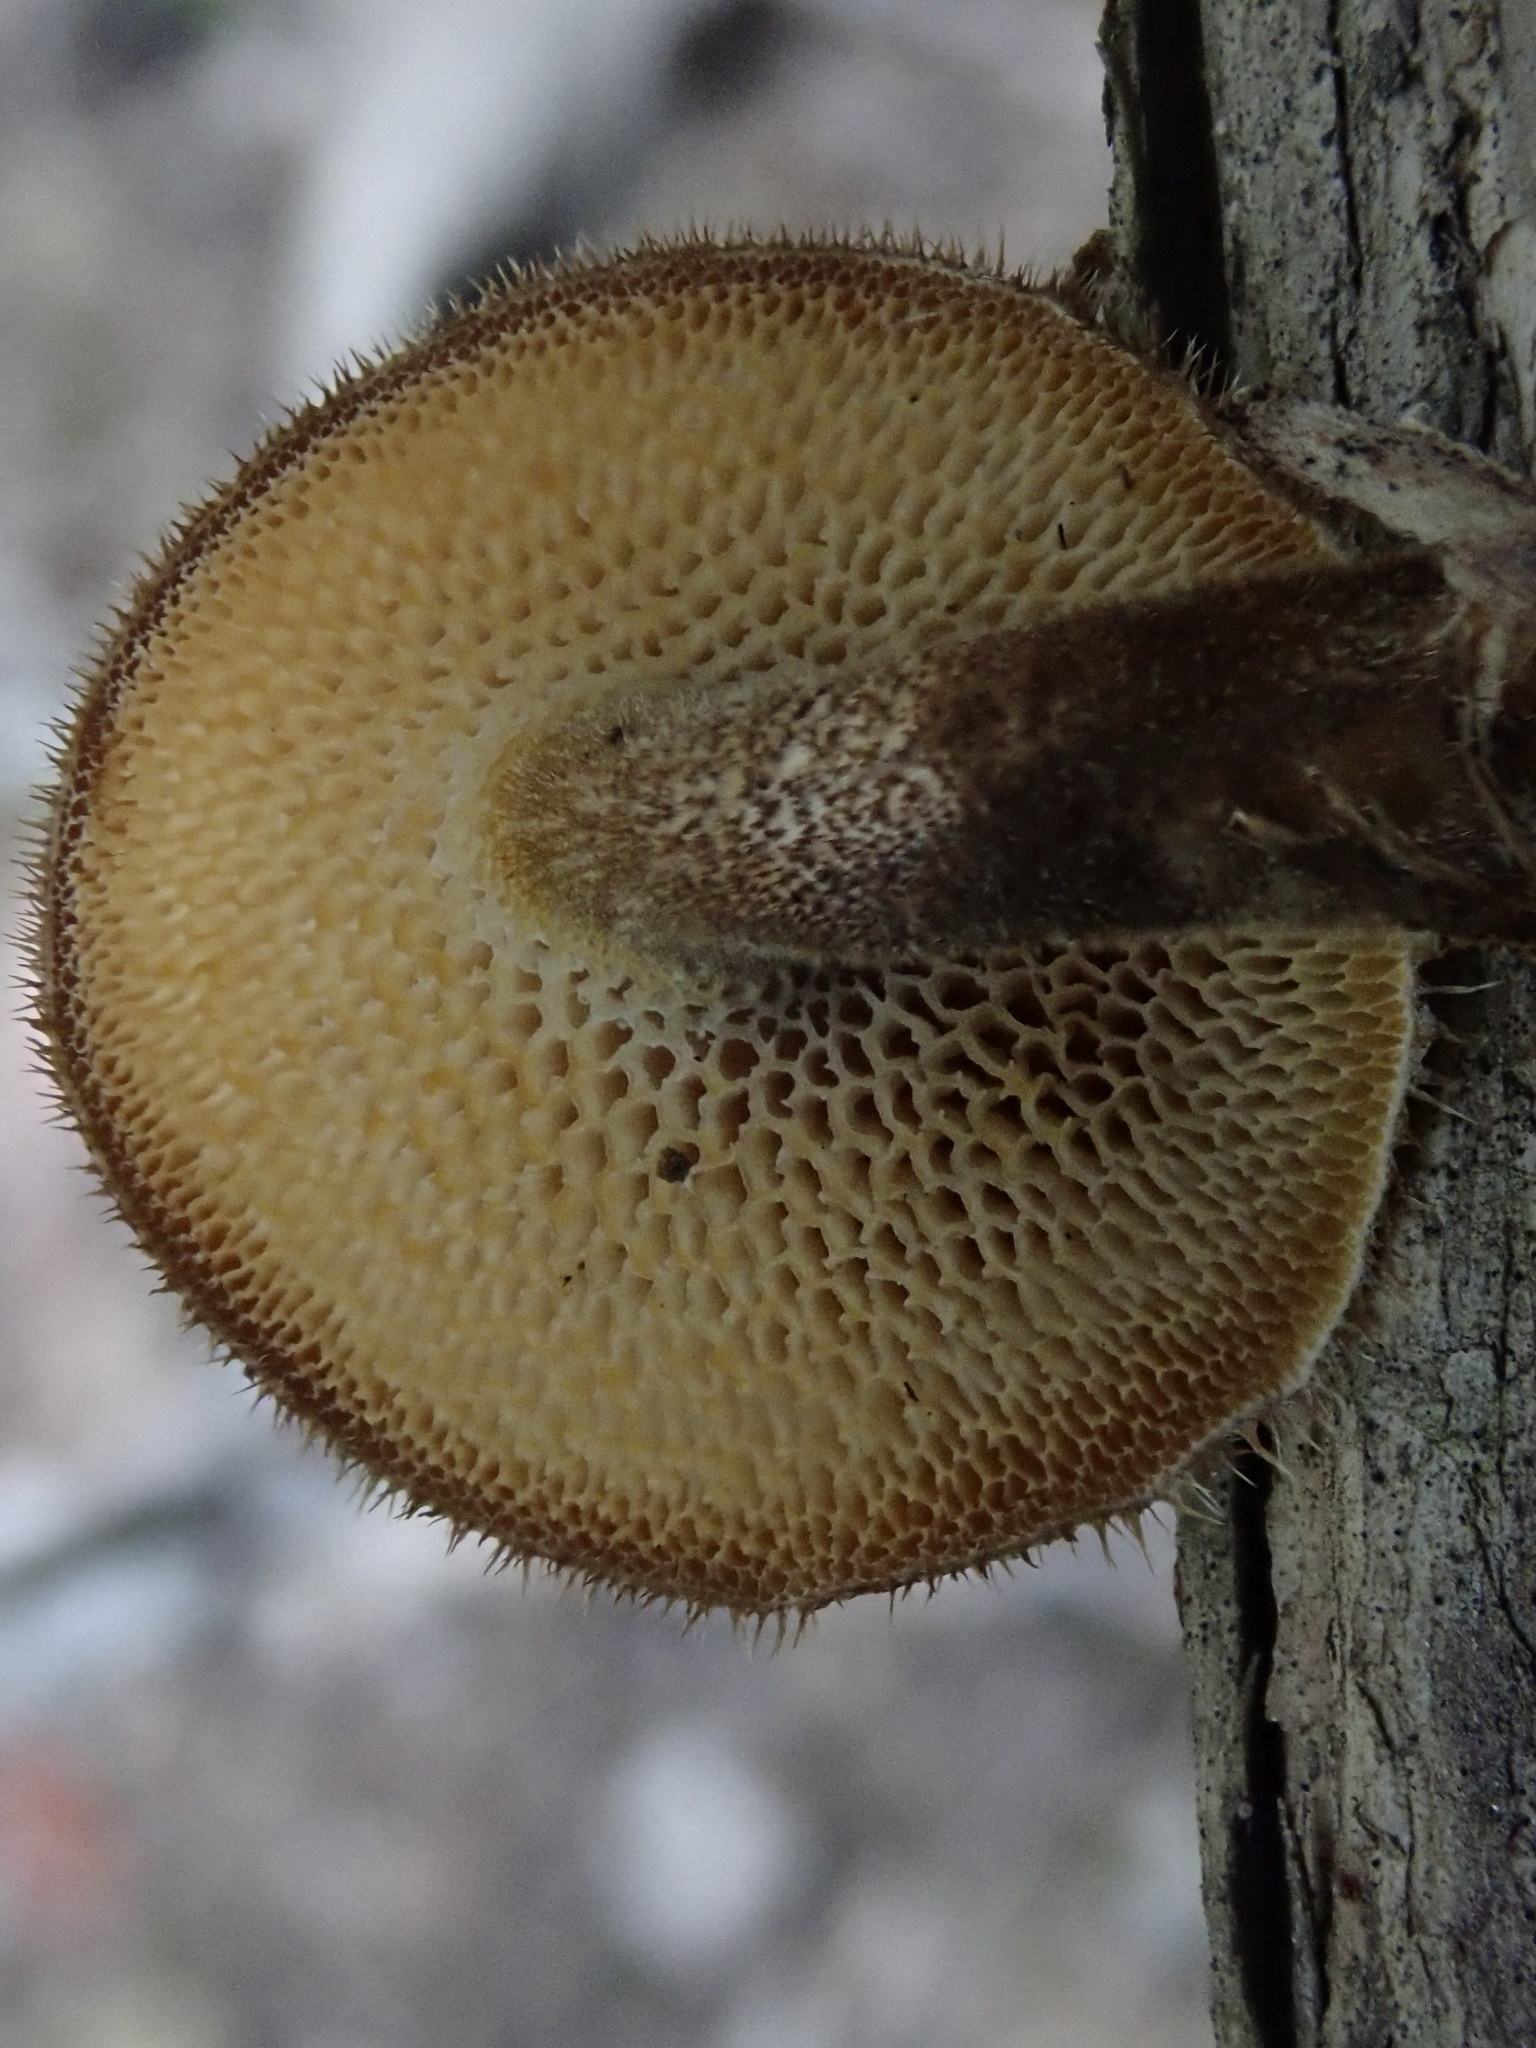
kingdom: Fungi
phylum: Basidiomycota
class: Agaricomycetes
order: Polyporales
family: Polyporaceae
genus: Lentinus
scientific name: Lentinus arcularius
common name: Spring polypore
